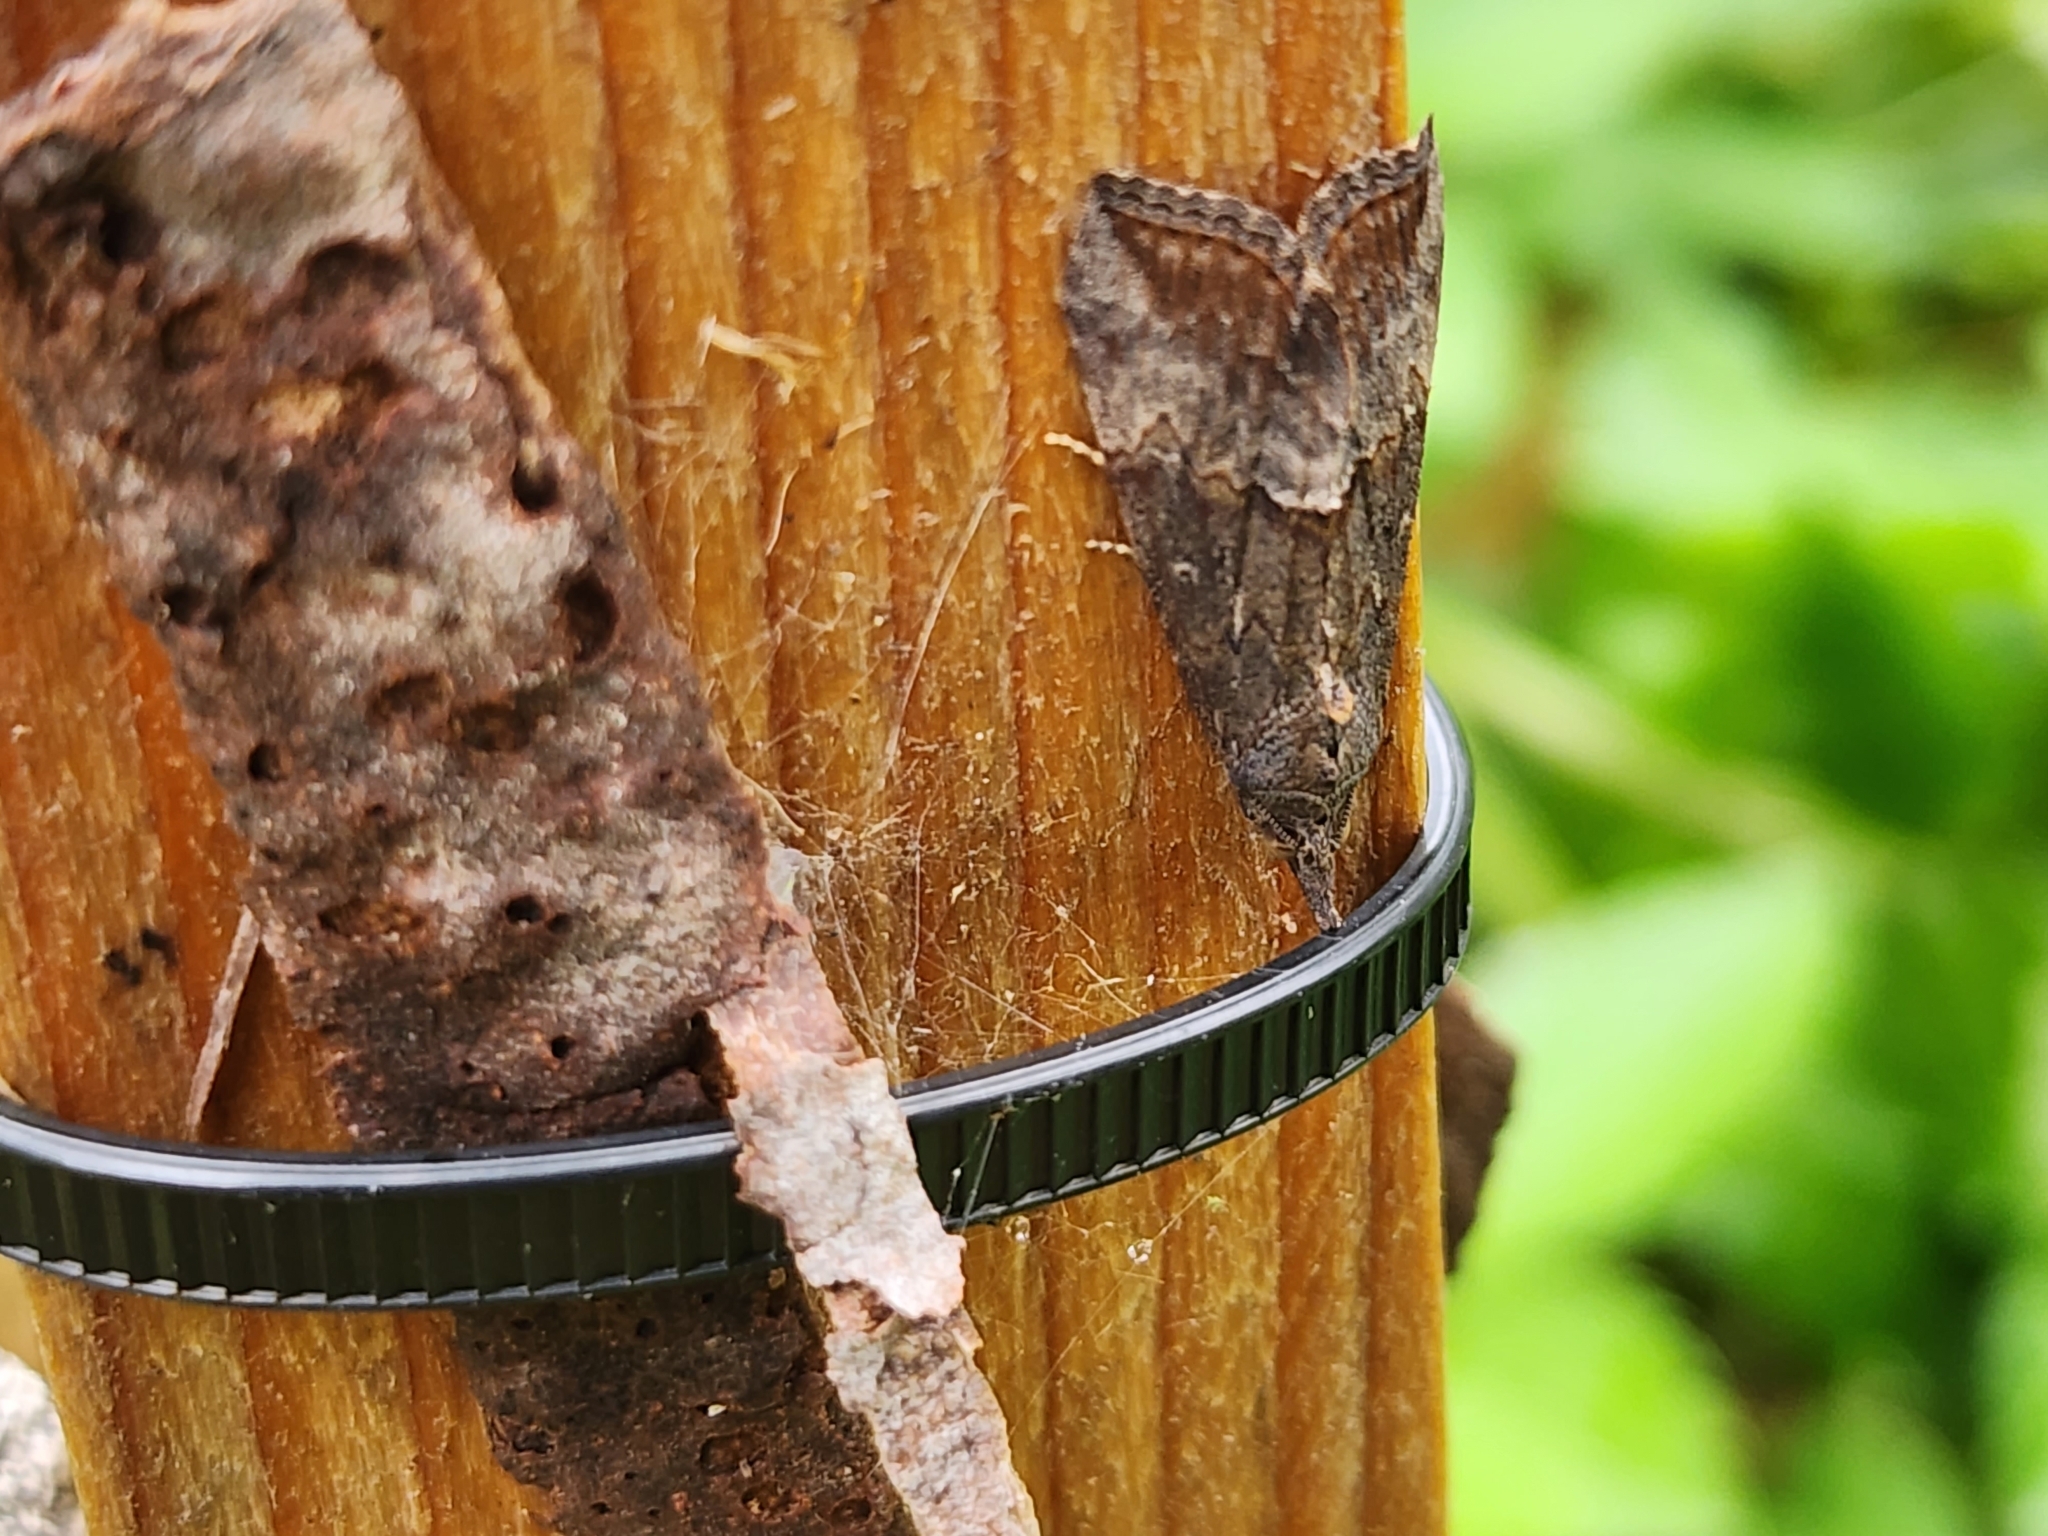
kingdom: Animalia
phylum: Arthropoda
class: Insecta
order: Lepidoptera
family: Erebidae
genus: Hypena
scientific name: Hypena scabra
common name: Green cloverworm
